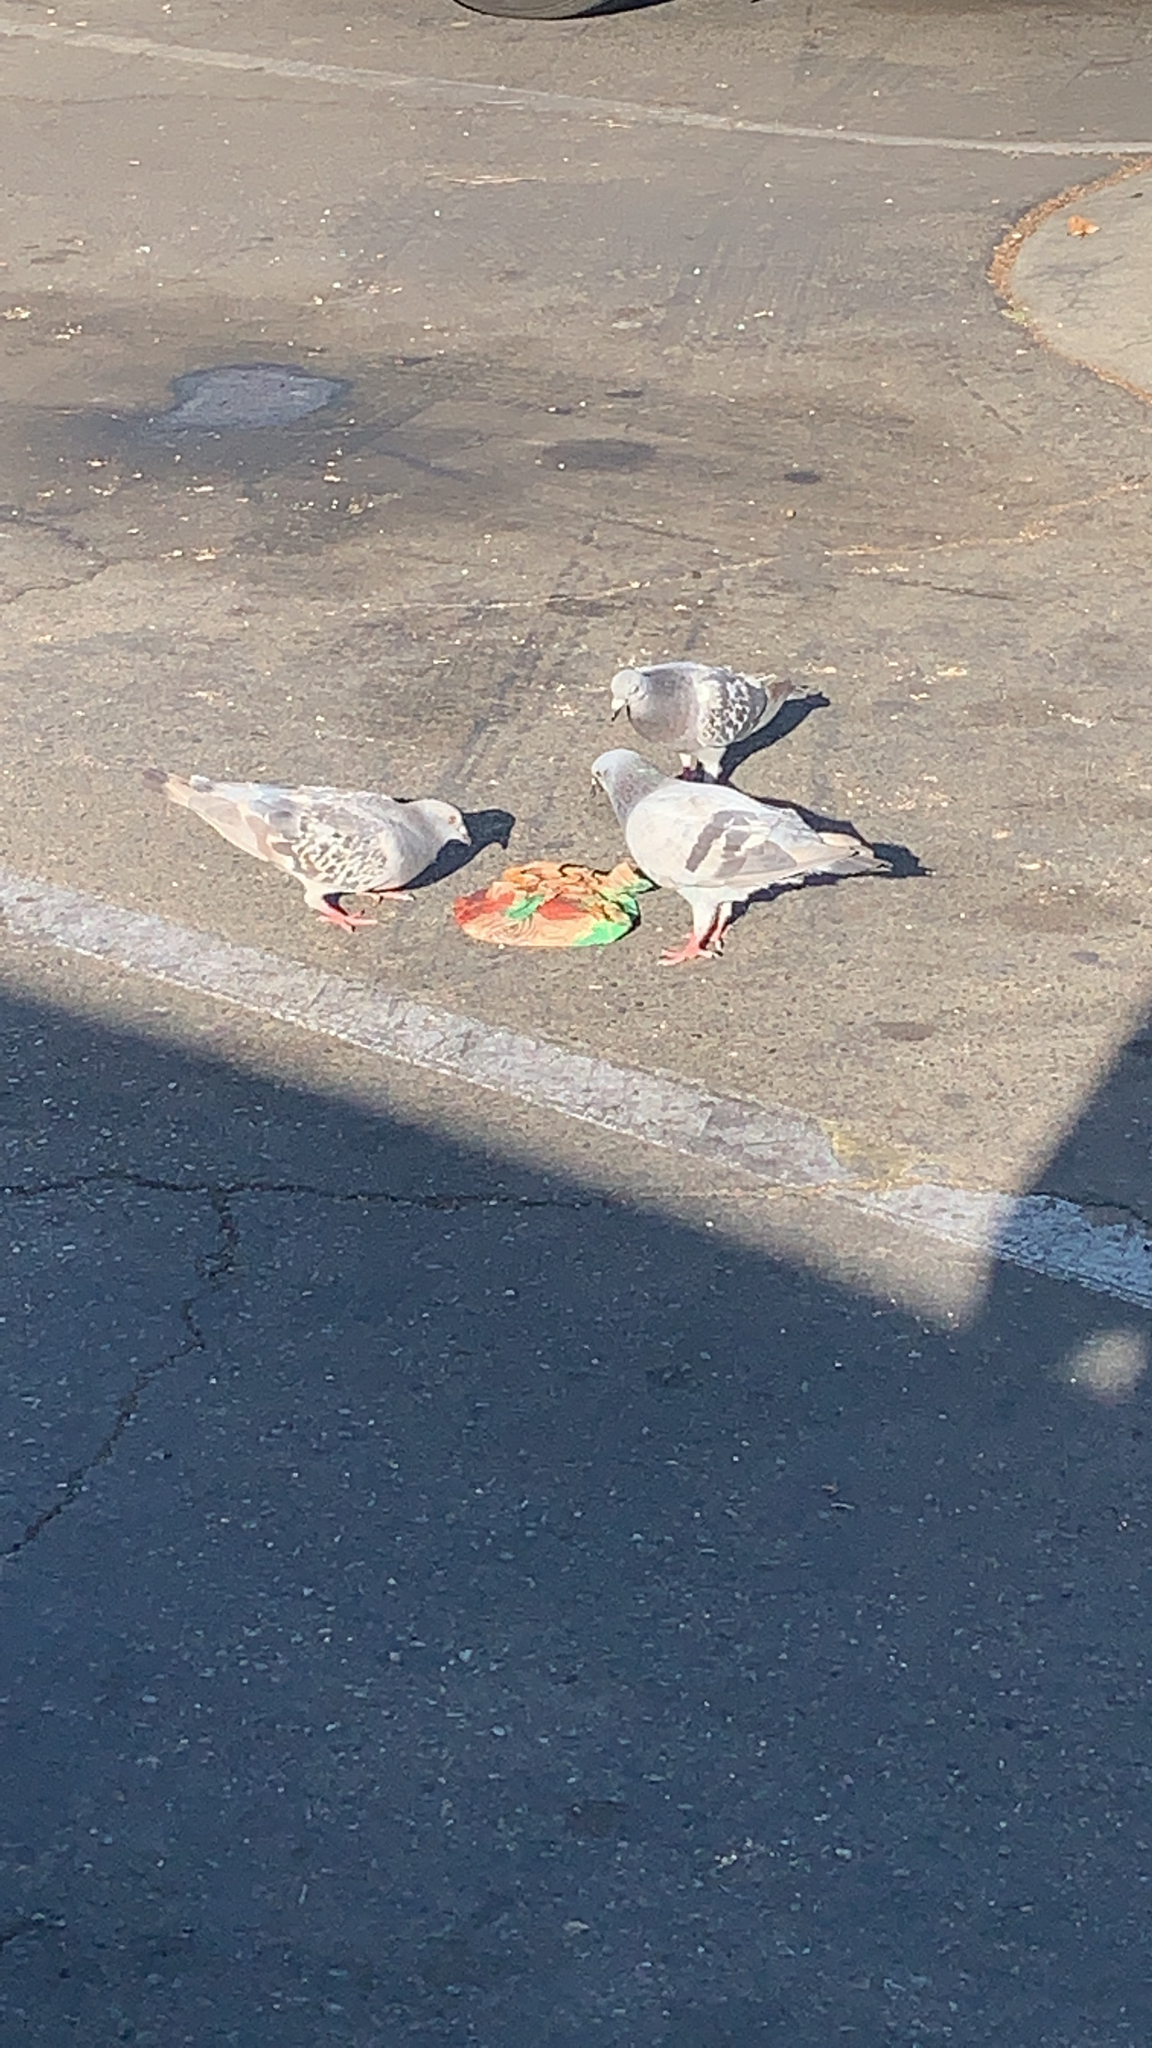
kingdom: Animalia
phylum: Chordata
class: Aves
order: Columbiformes
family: Columbidae
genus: Columba
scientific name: Columba livia
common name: Rock pigeon
